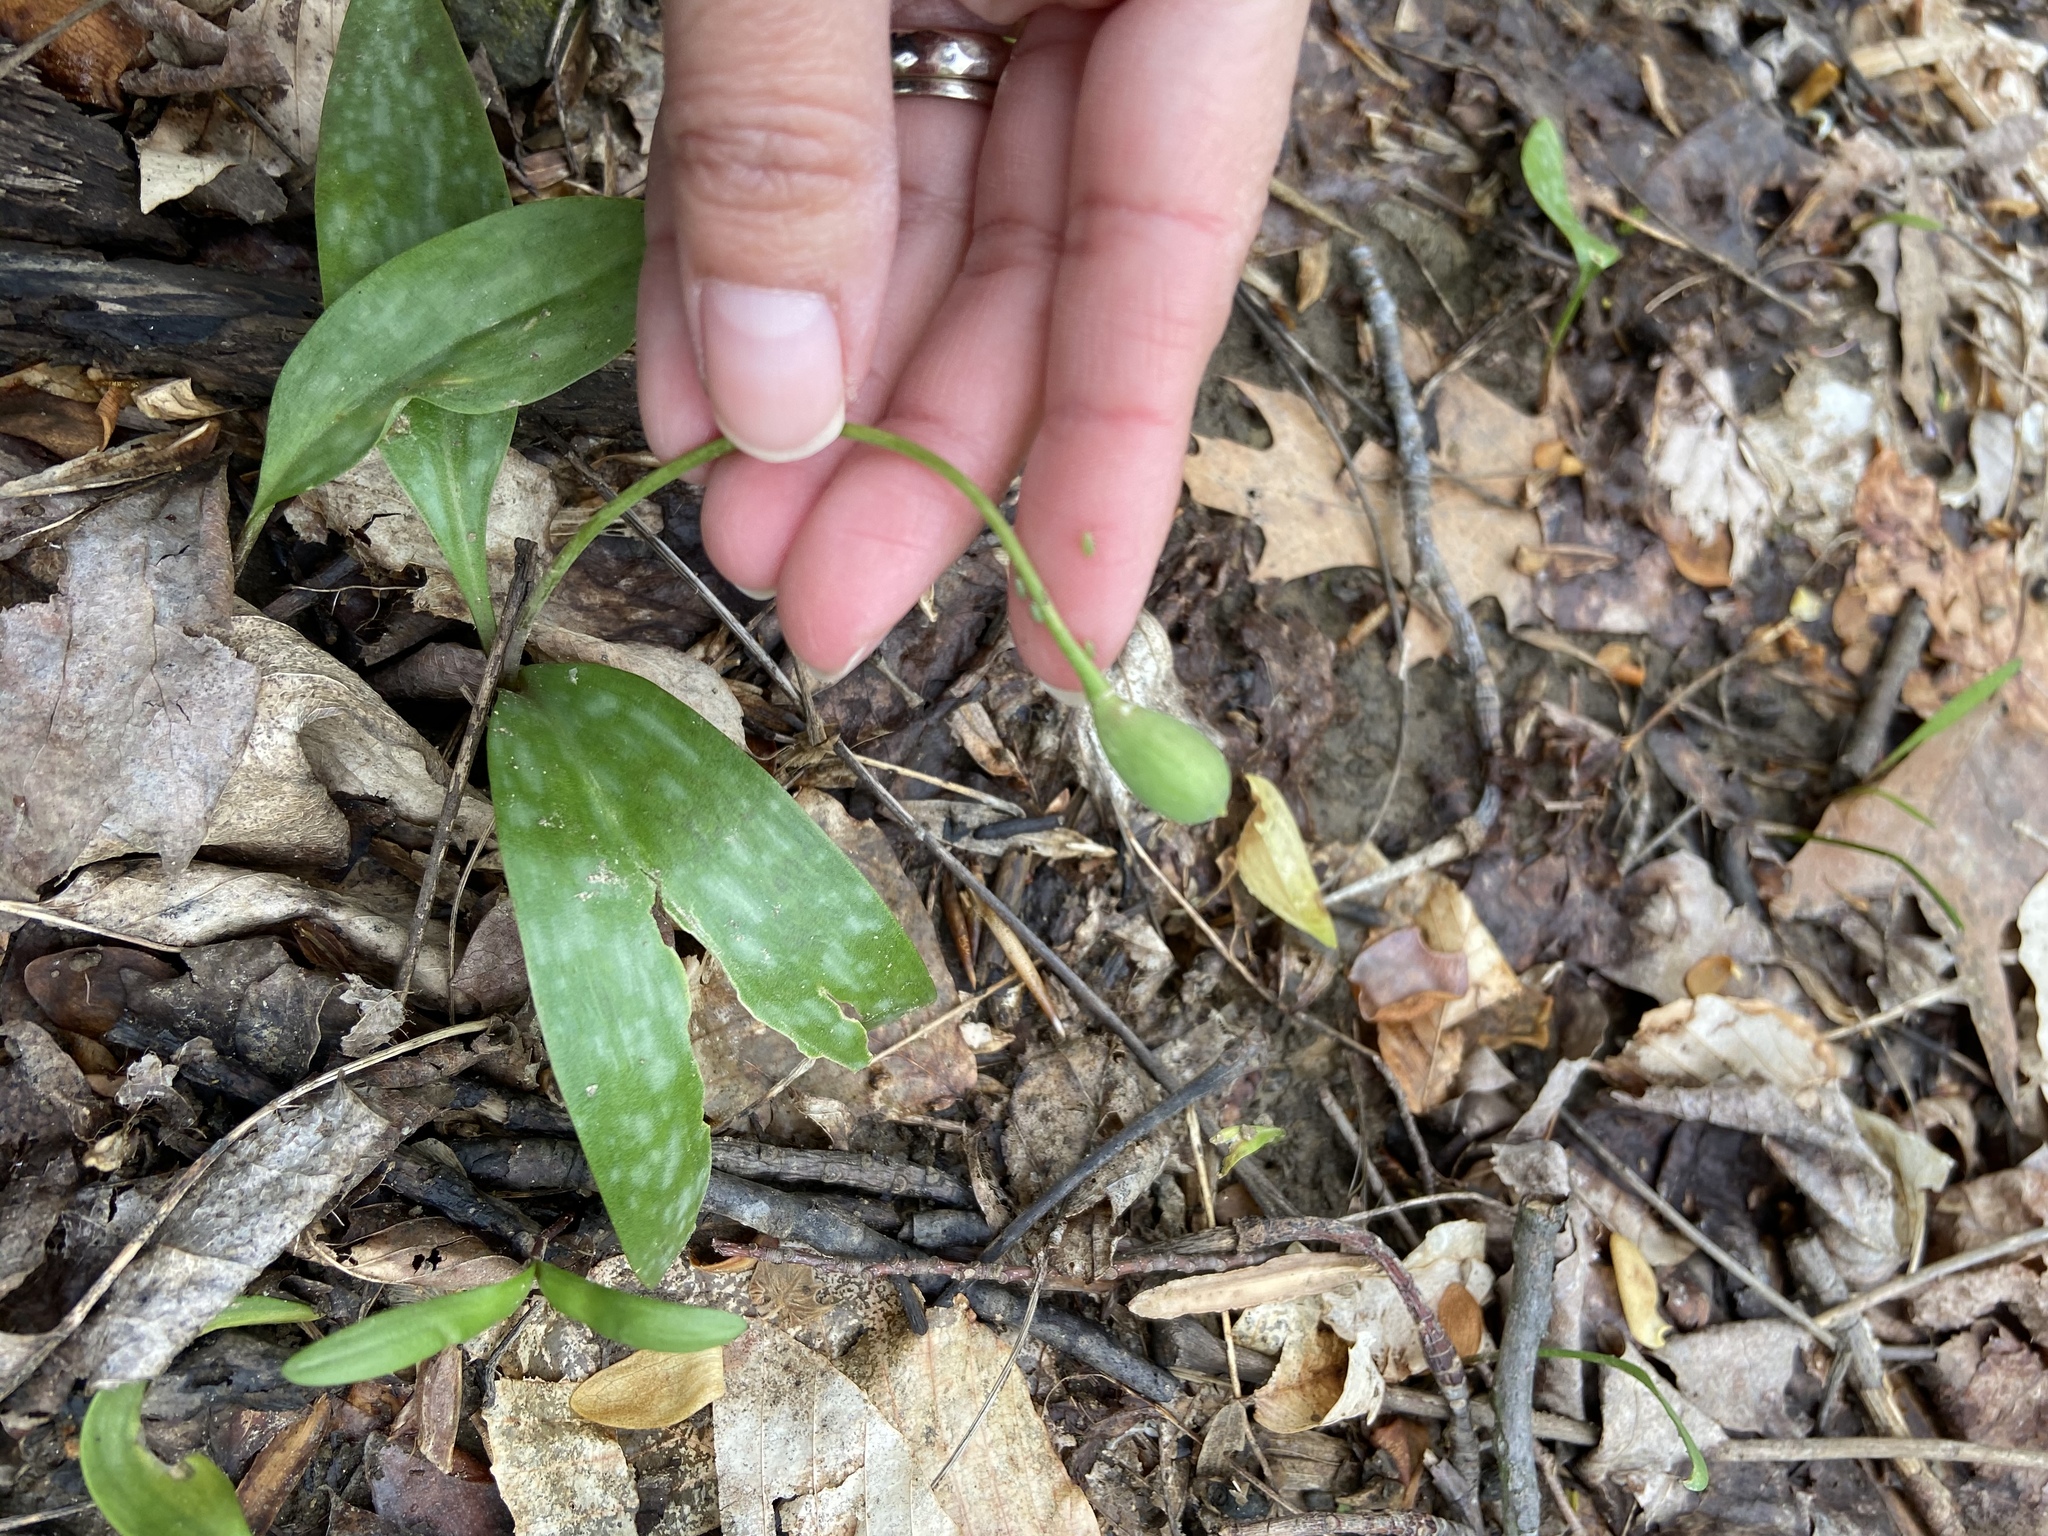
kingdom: Plantae
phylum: Tracheophyta
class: Liliopsida
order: Liliales
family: Liliaceae
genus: Erythronium
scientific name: Erythronium americanum
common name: Yellow adder's-tongue
